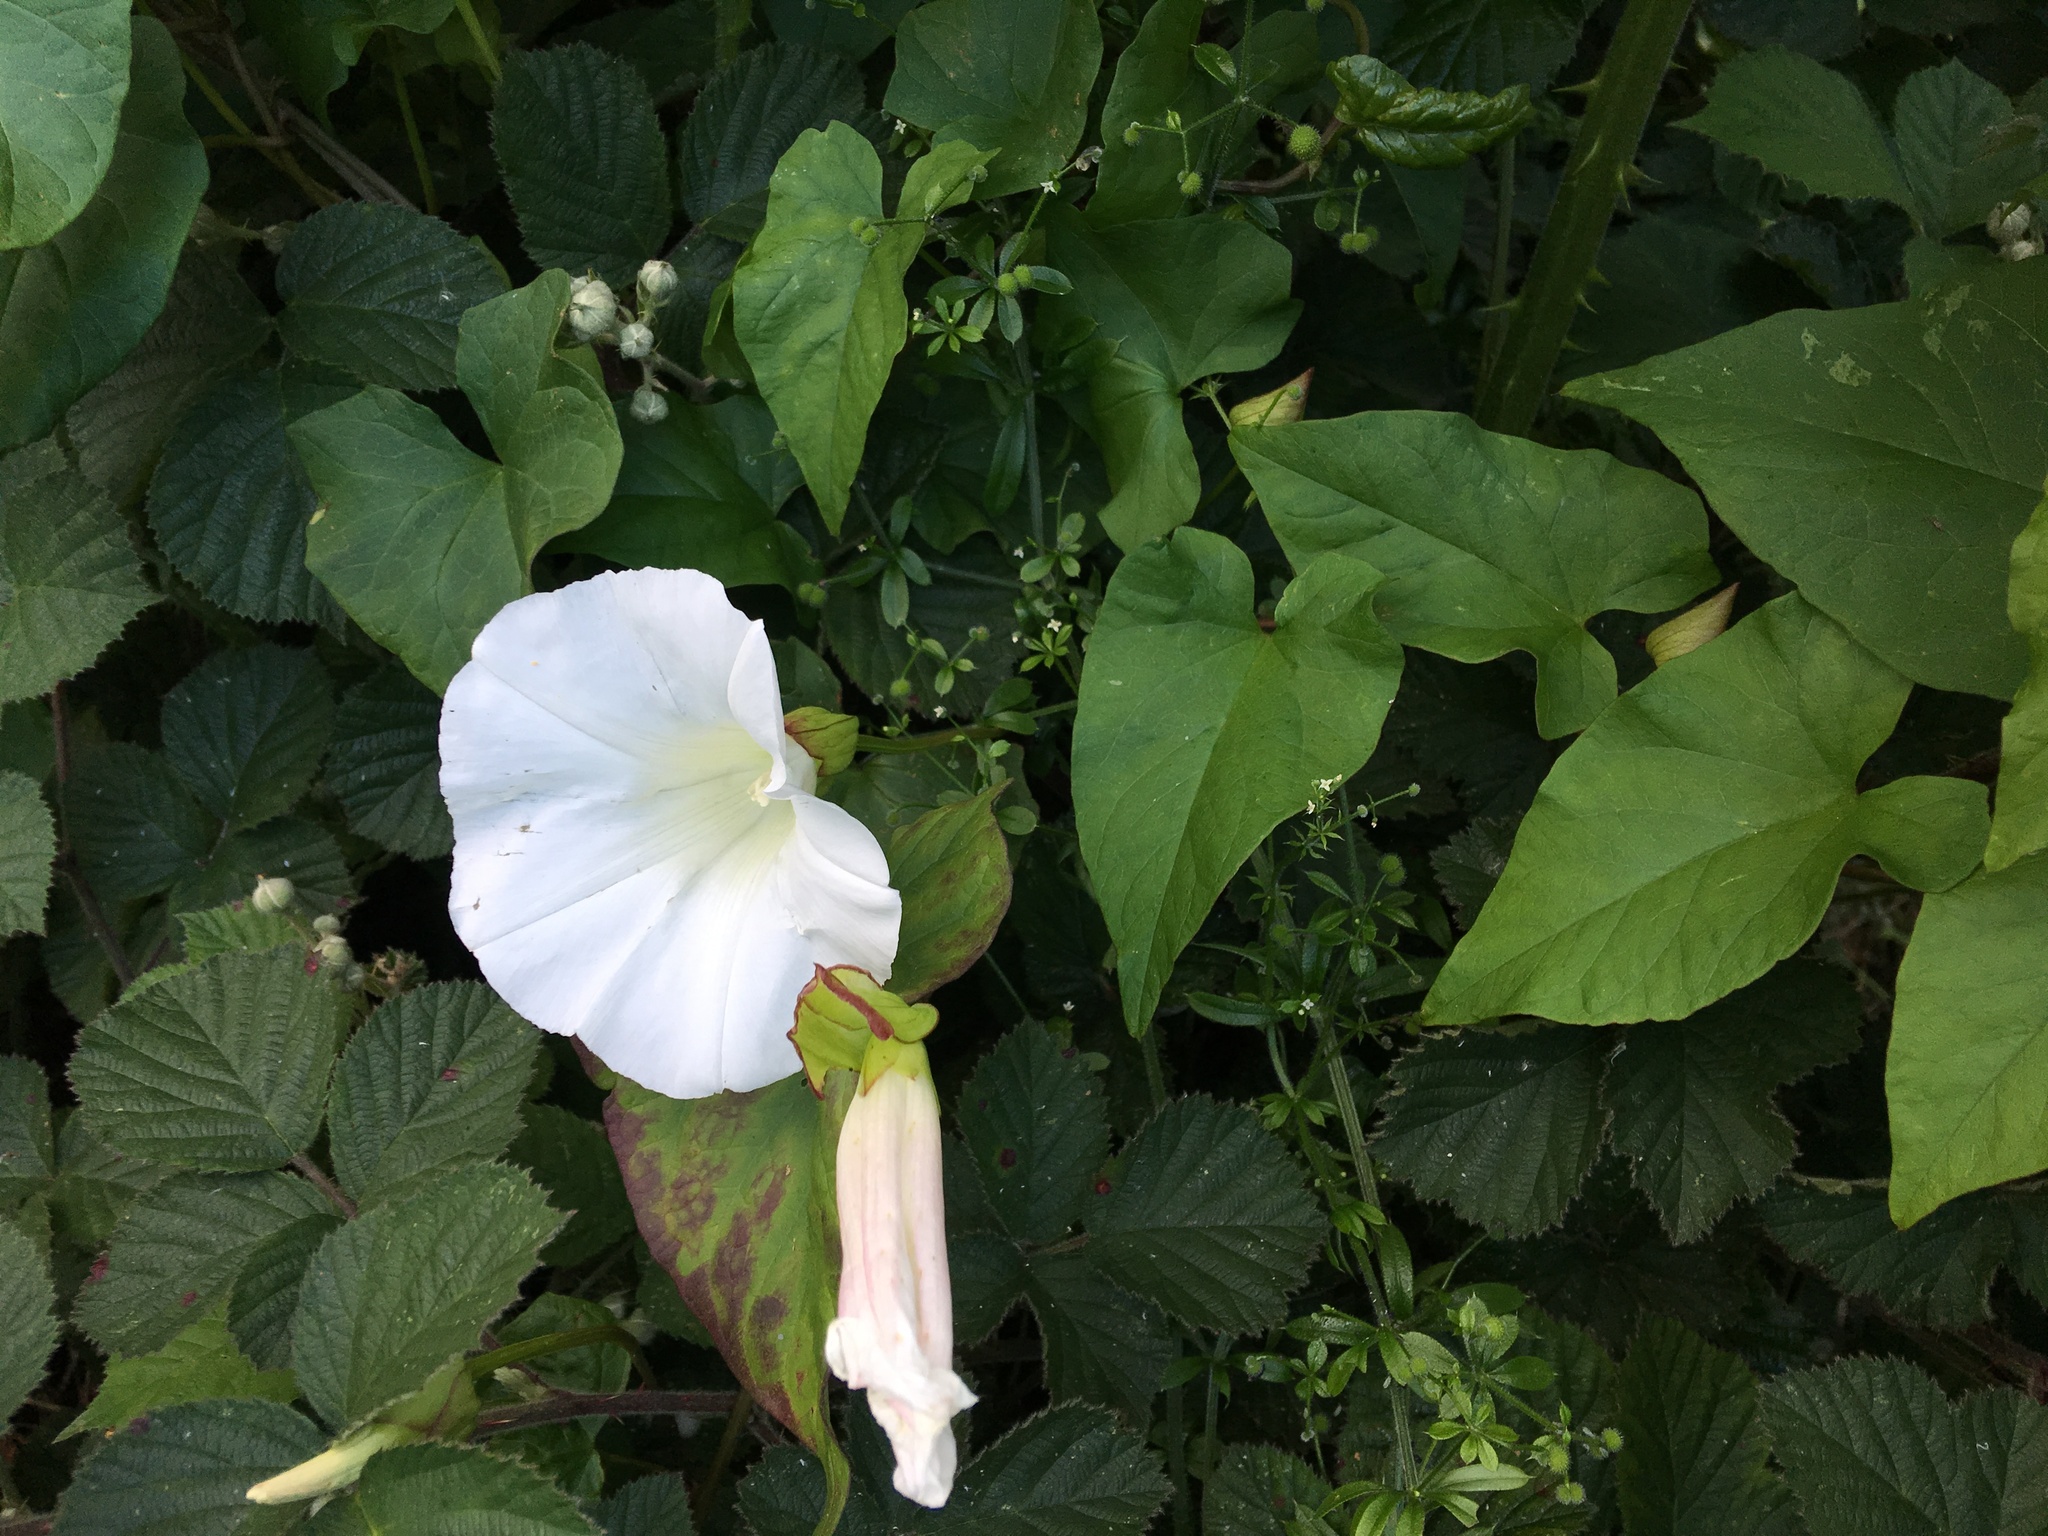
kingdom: Plantae
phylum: Tracheophyta
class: Magnoliopsida
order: Solanales
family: Convolvulaceae
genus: Calystegia
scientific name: Calystegia silvatica
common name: Large bindweed
